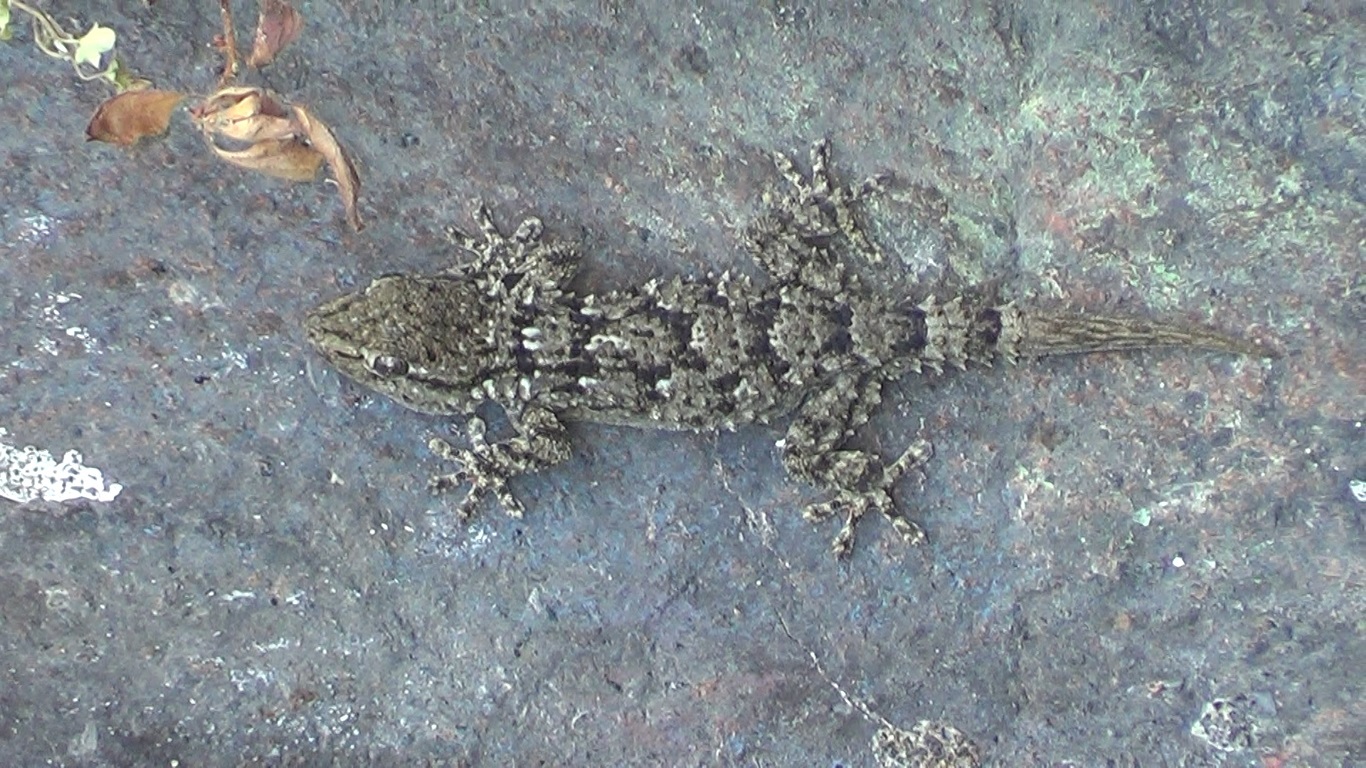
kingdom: Animalia
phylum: Chordata
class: Squamata
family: Phyllodactylidae
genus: Tarentola
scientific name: Tarentola mauritanica
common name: Moorish gecko
